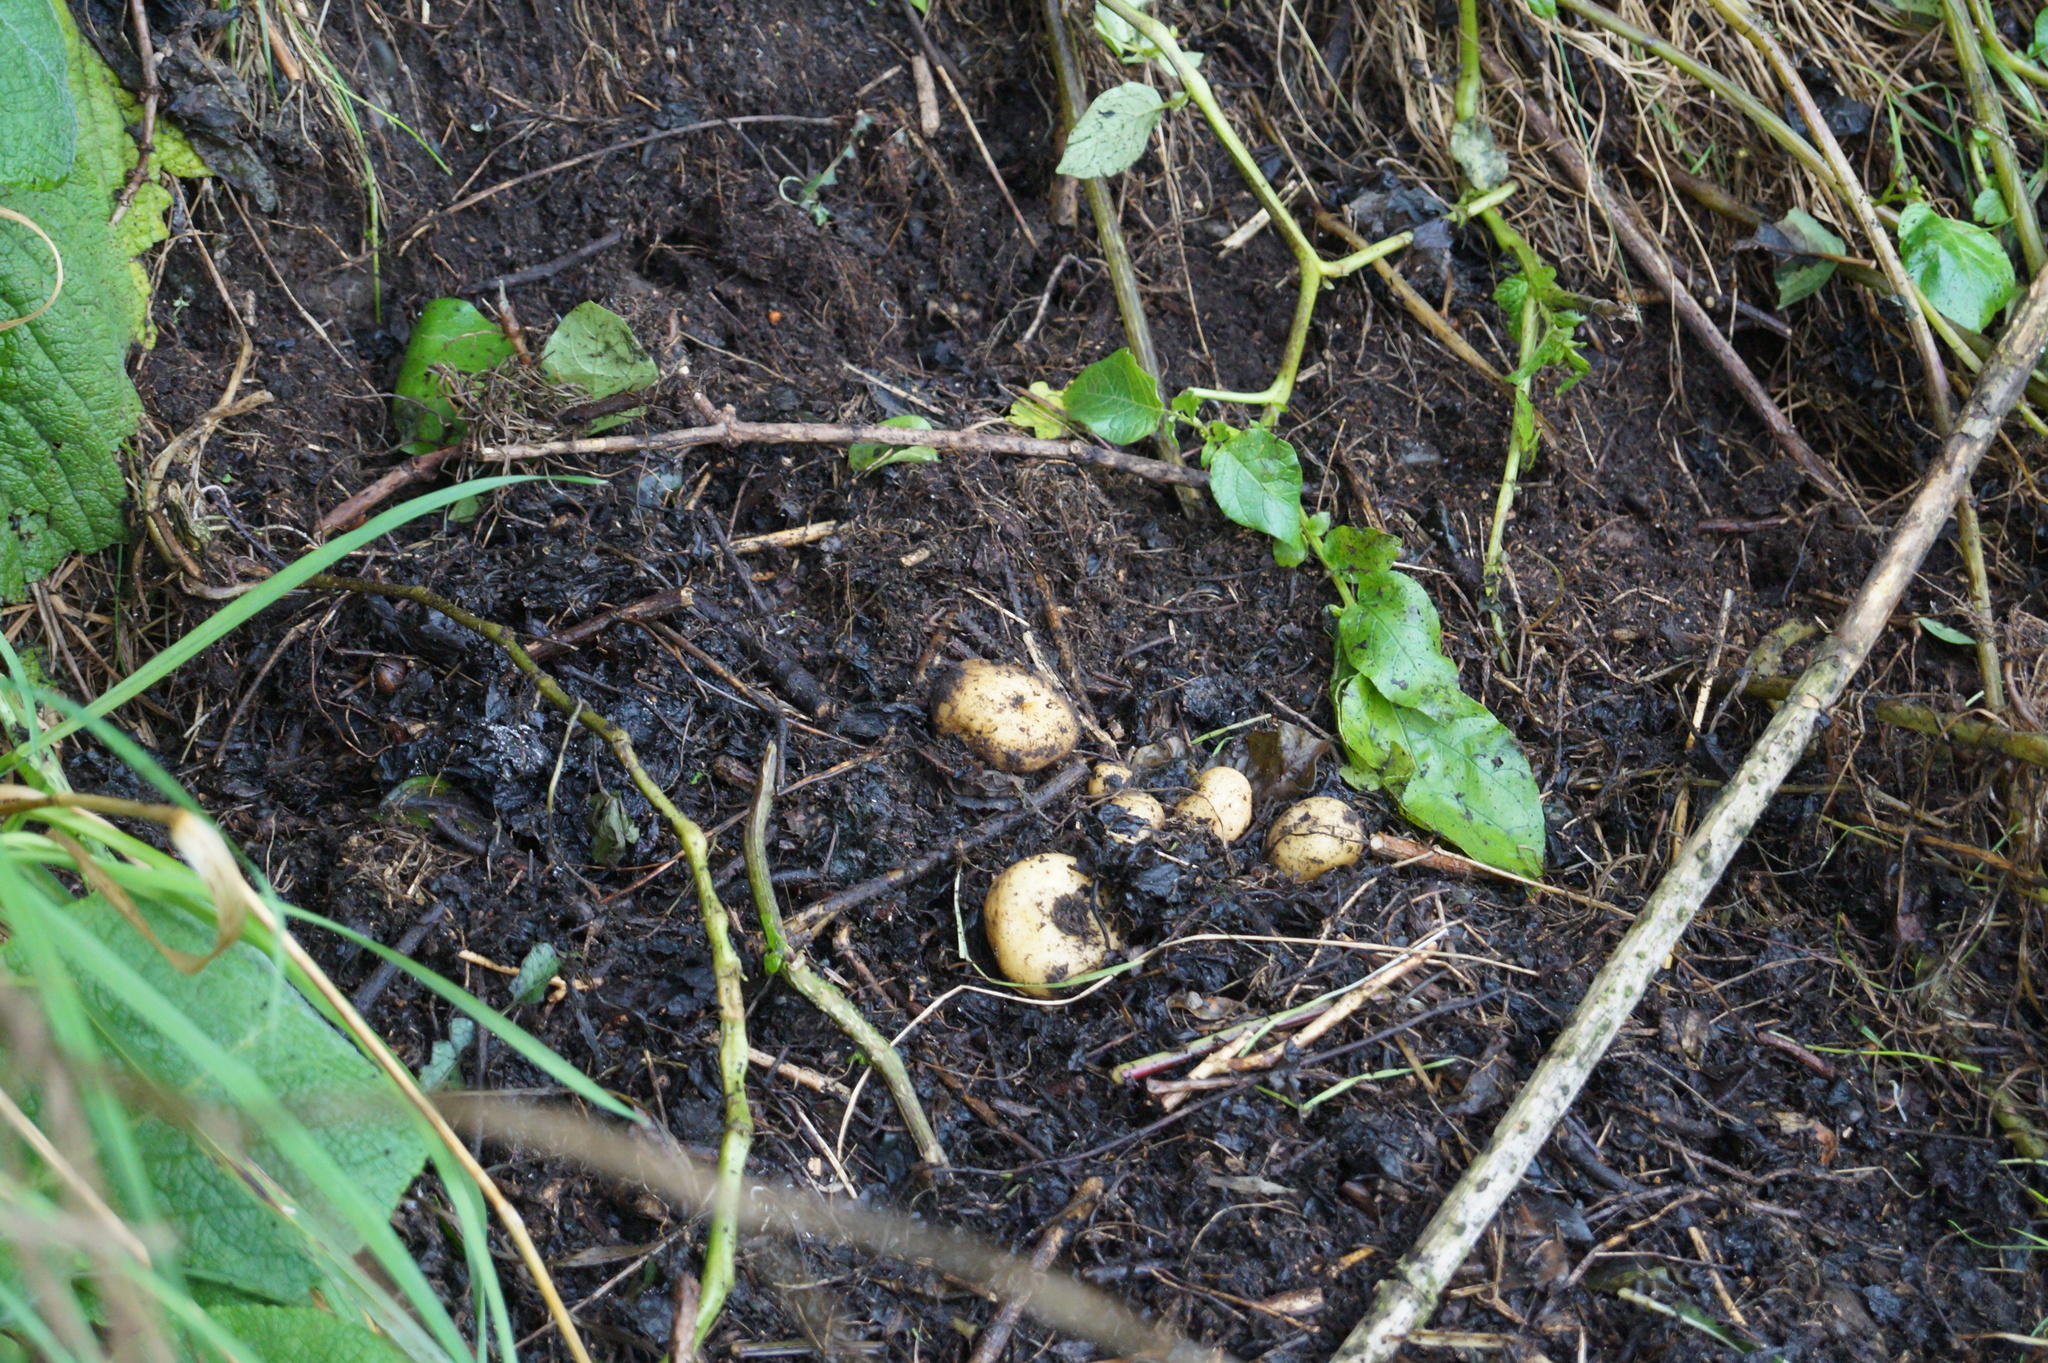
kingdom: Plantae
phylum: Tracheophyta
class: Magnoliopsida
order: Solanales
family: Solanaceae
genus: Solanum
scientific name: Solanum tuberosum
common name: Potato
